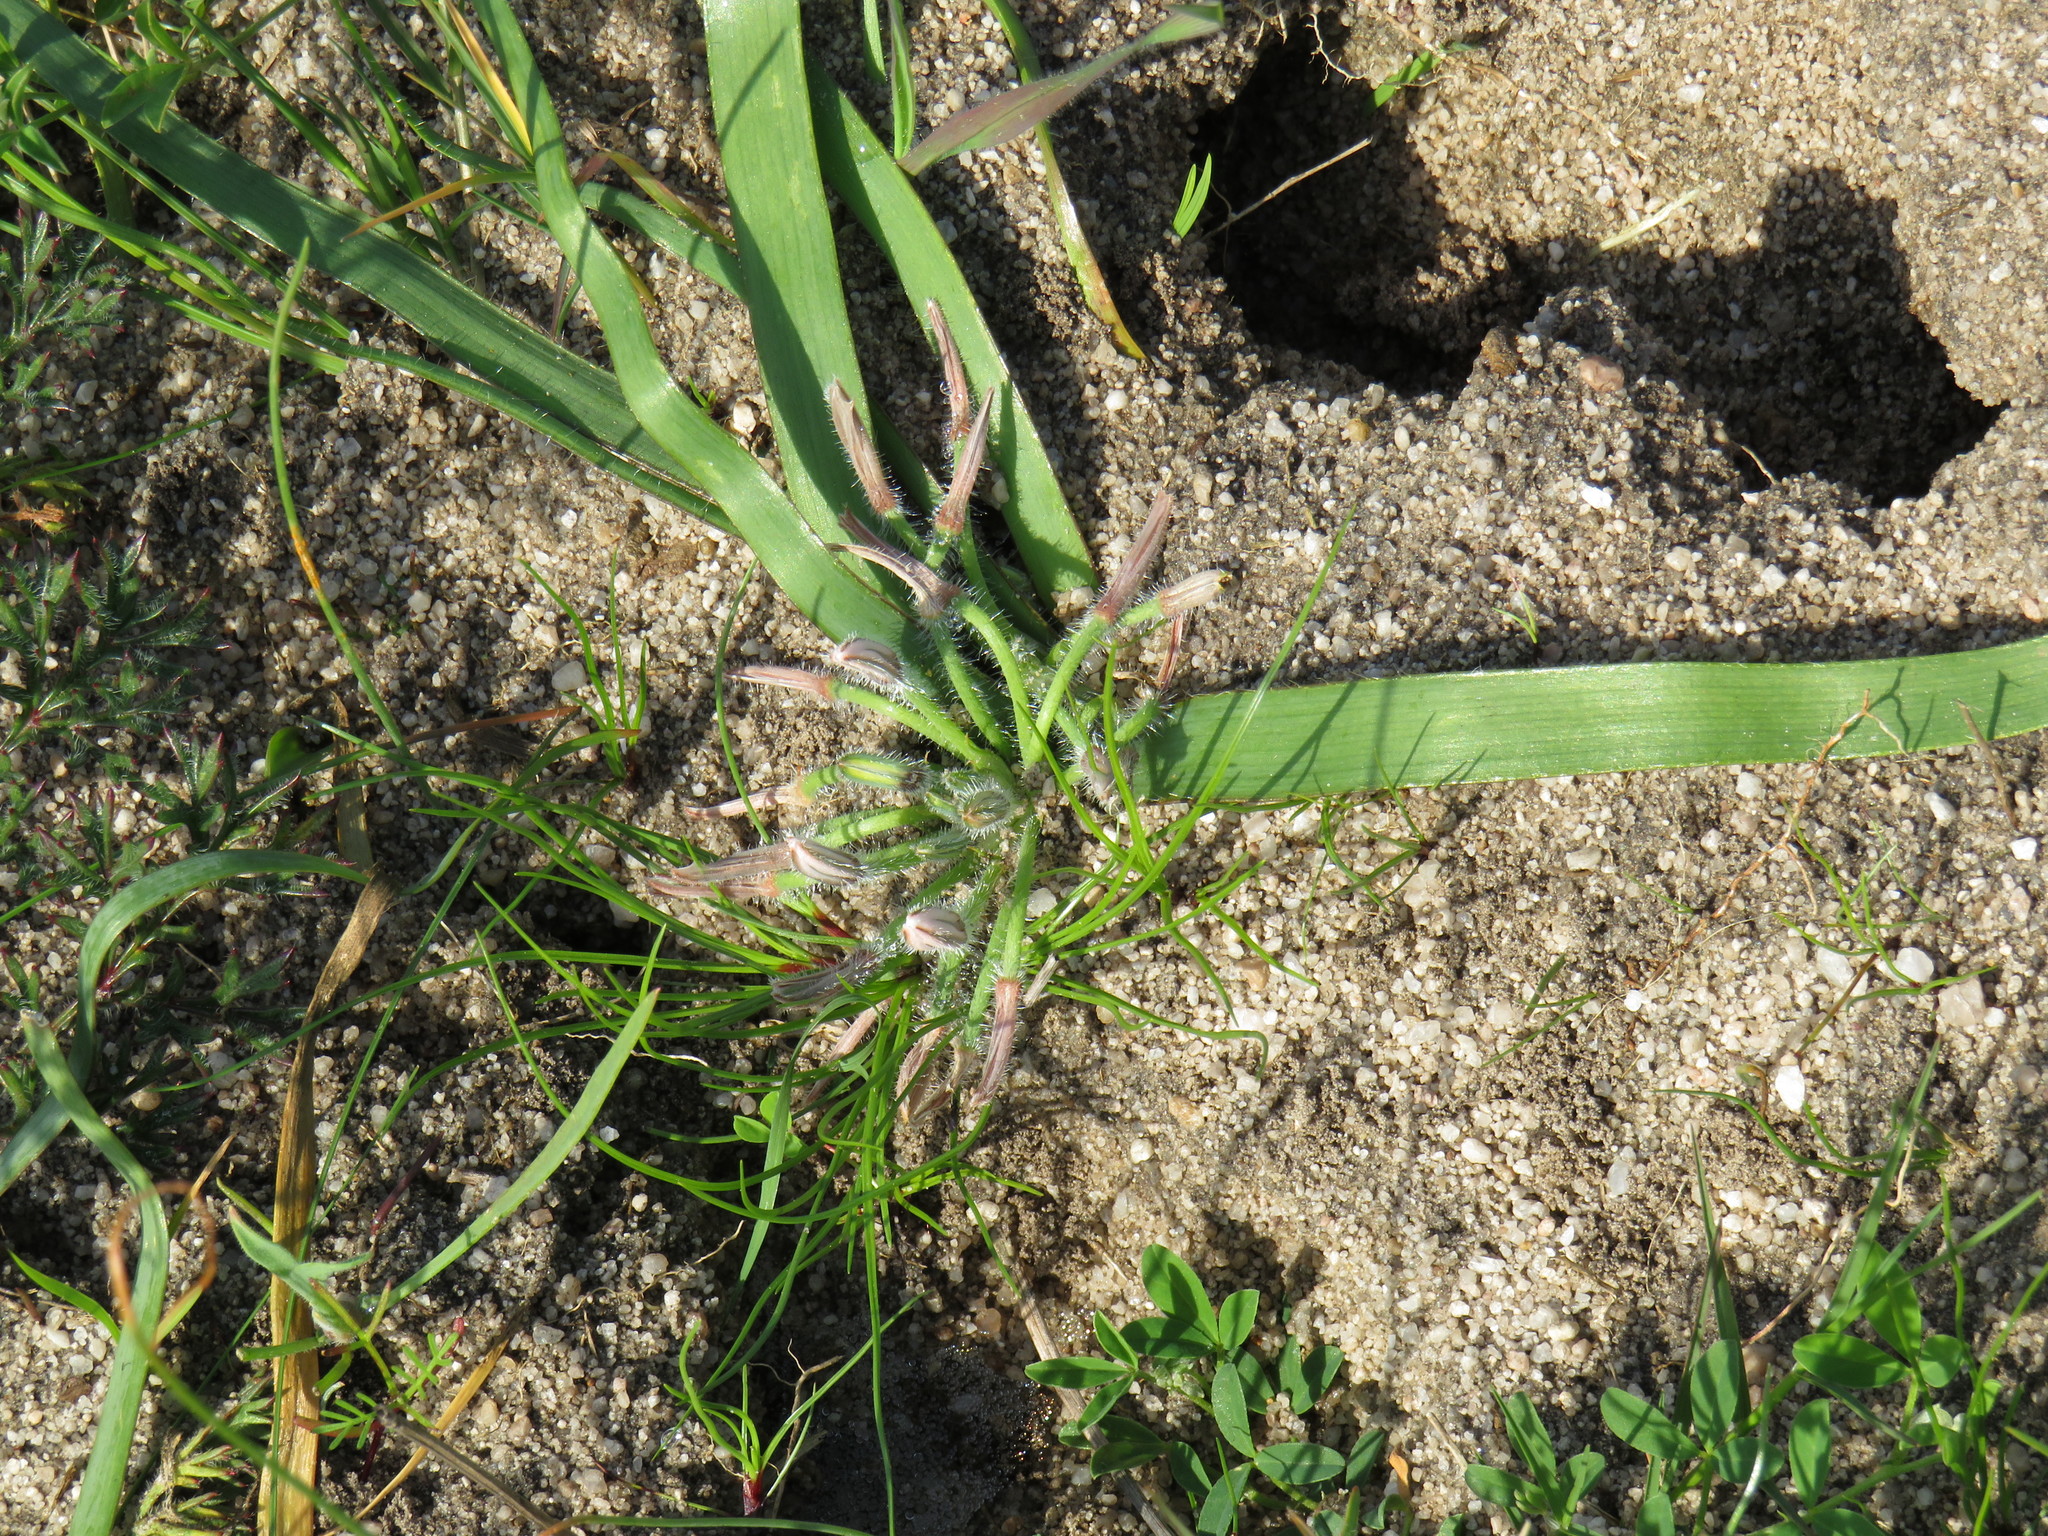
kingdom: Plantae
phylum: Tracheophyta
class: Liliopsida
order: Asparagales
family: Asphodelaceae
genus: Trachyandra
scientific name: Trachyandra hispida
